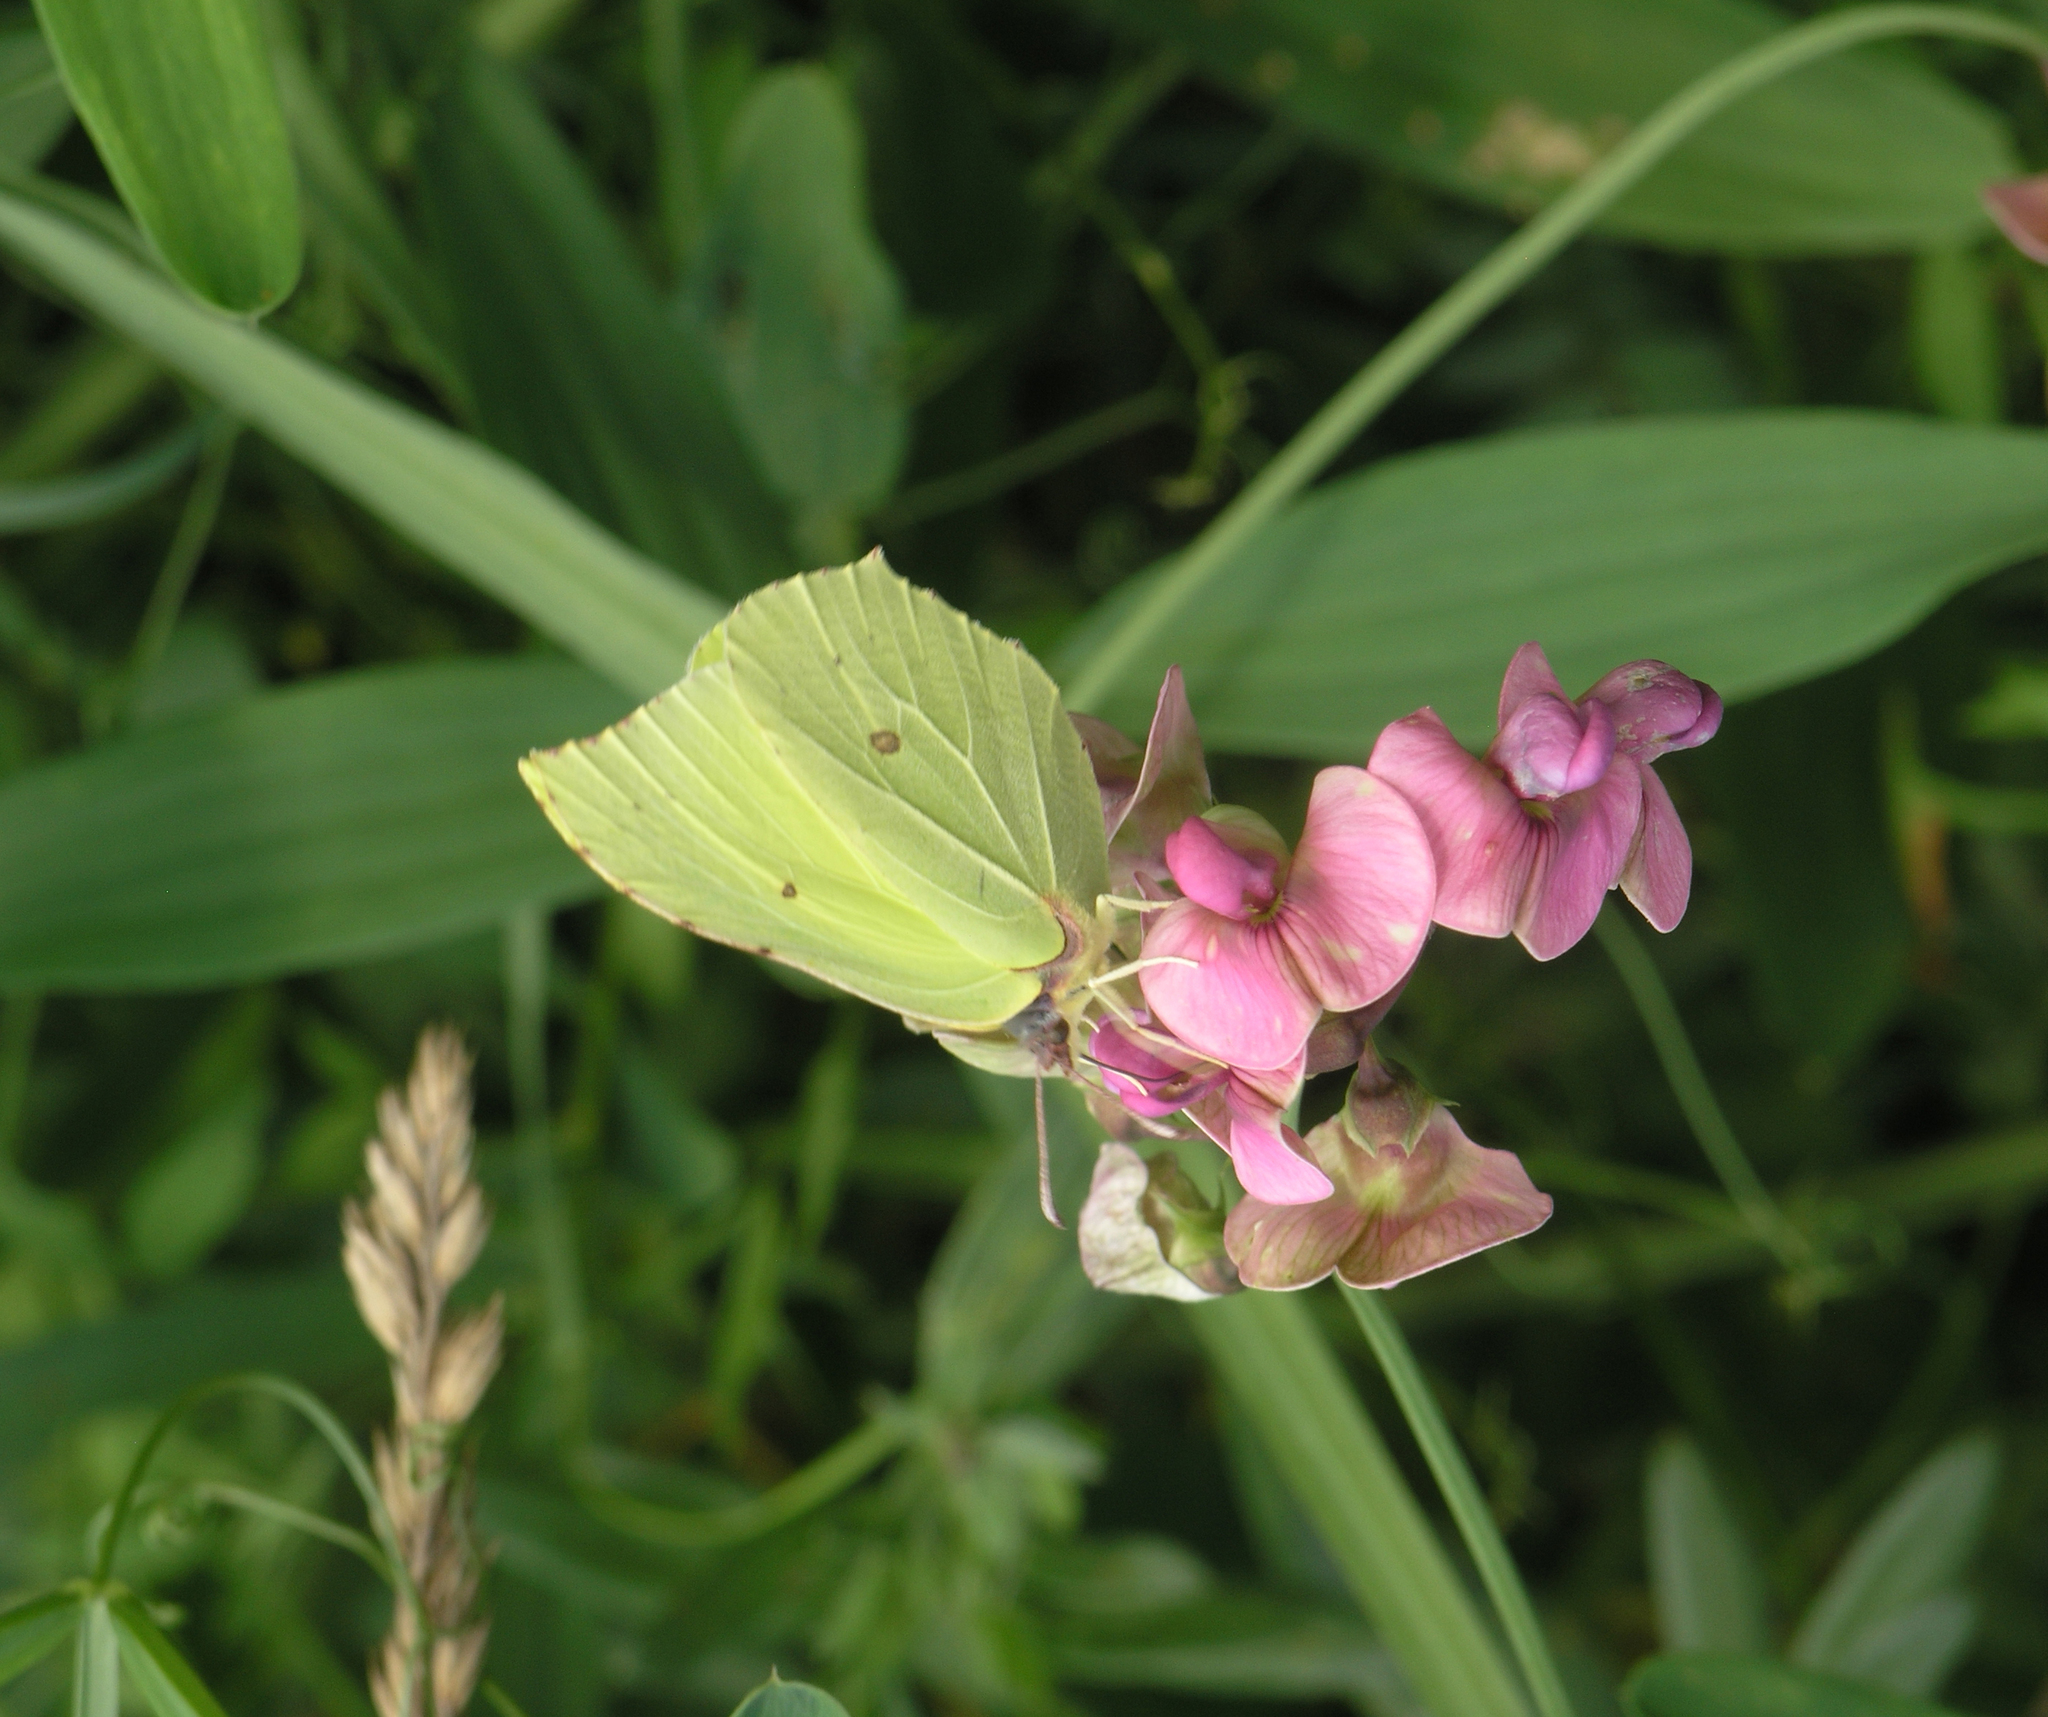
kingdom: Animalia
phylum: Arthropoda
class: Insecta
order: Lepidoptera
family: Pieridae
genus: Gonepteryx
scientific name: Gonepteryx rhamni
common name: Brimstone
